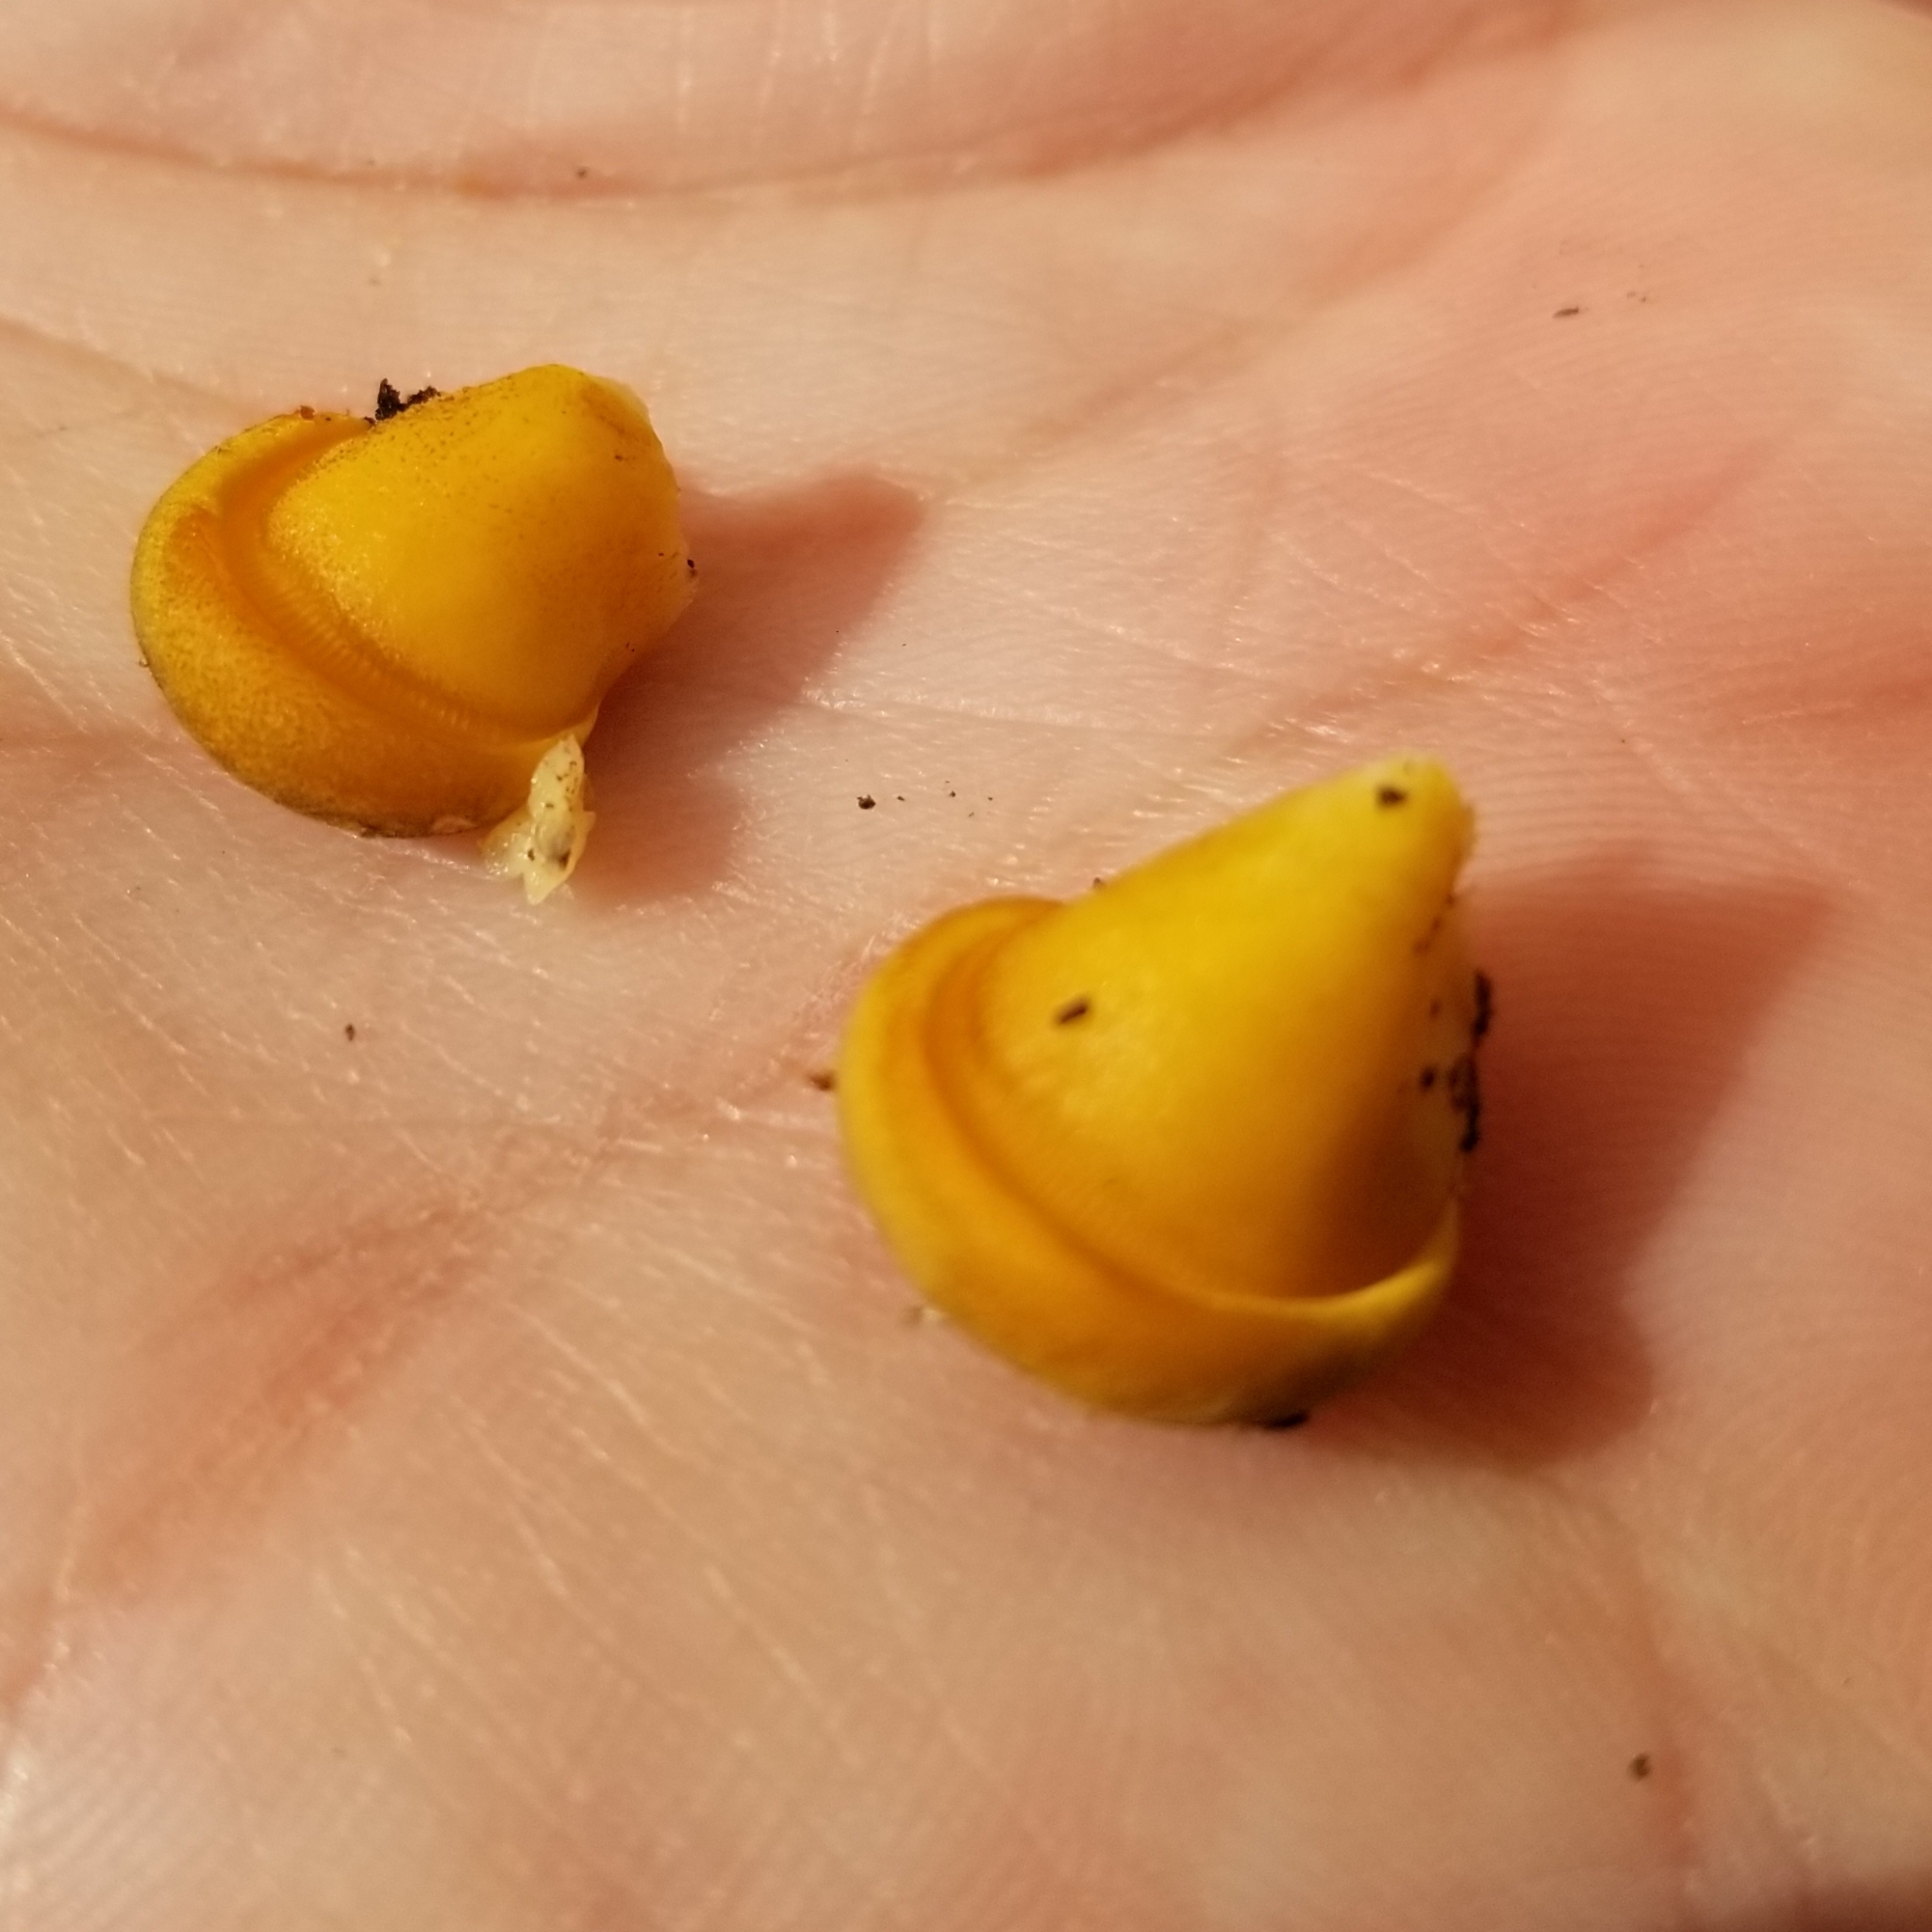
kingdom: Fungi
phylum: Basidiomycota
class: Agaricomycetes
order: Agaricales
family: Sarcomyxaceae
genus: Sarcomyxa
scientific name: Sarcomyxa serotina
